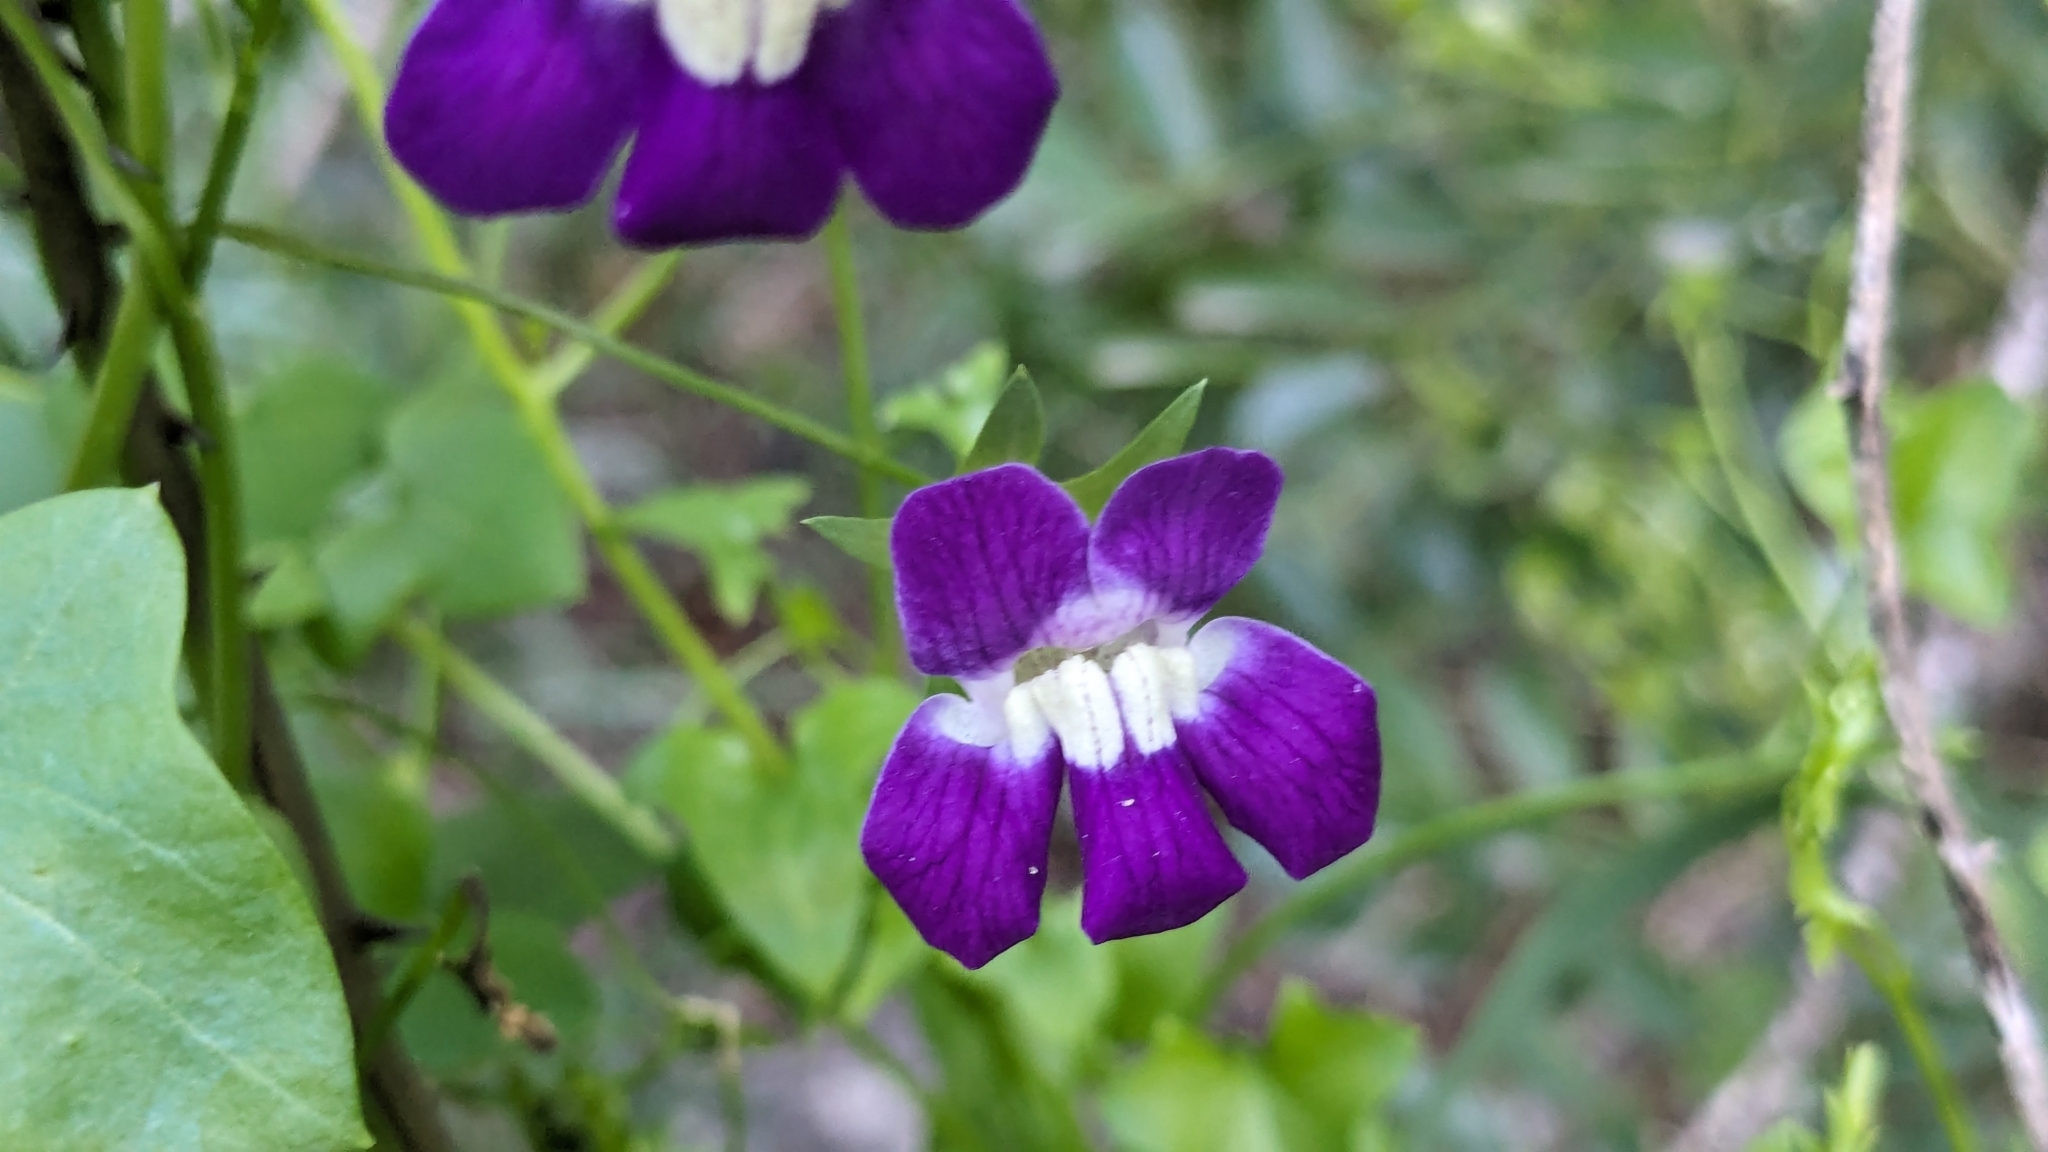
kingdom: Plantae
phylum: Tracheophyta
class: Magnoliopsida
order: Lamiales
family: Plantaginaceae
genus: Maurandella
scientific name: Maurandella antirrhiniflora
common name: Violet twining-snapdragon
